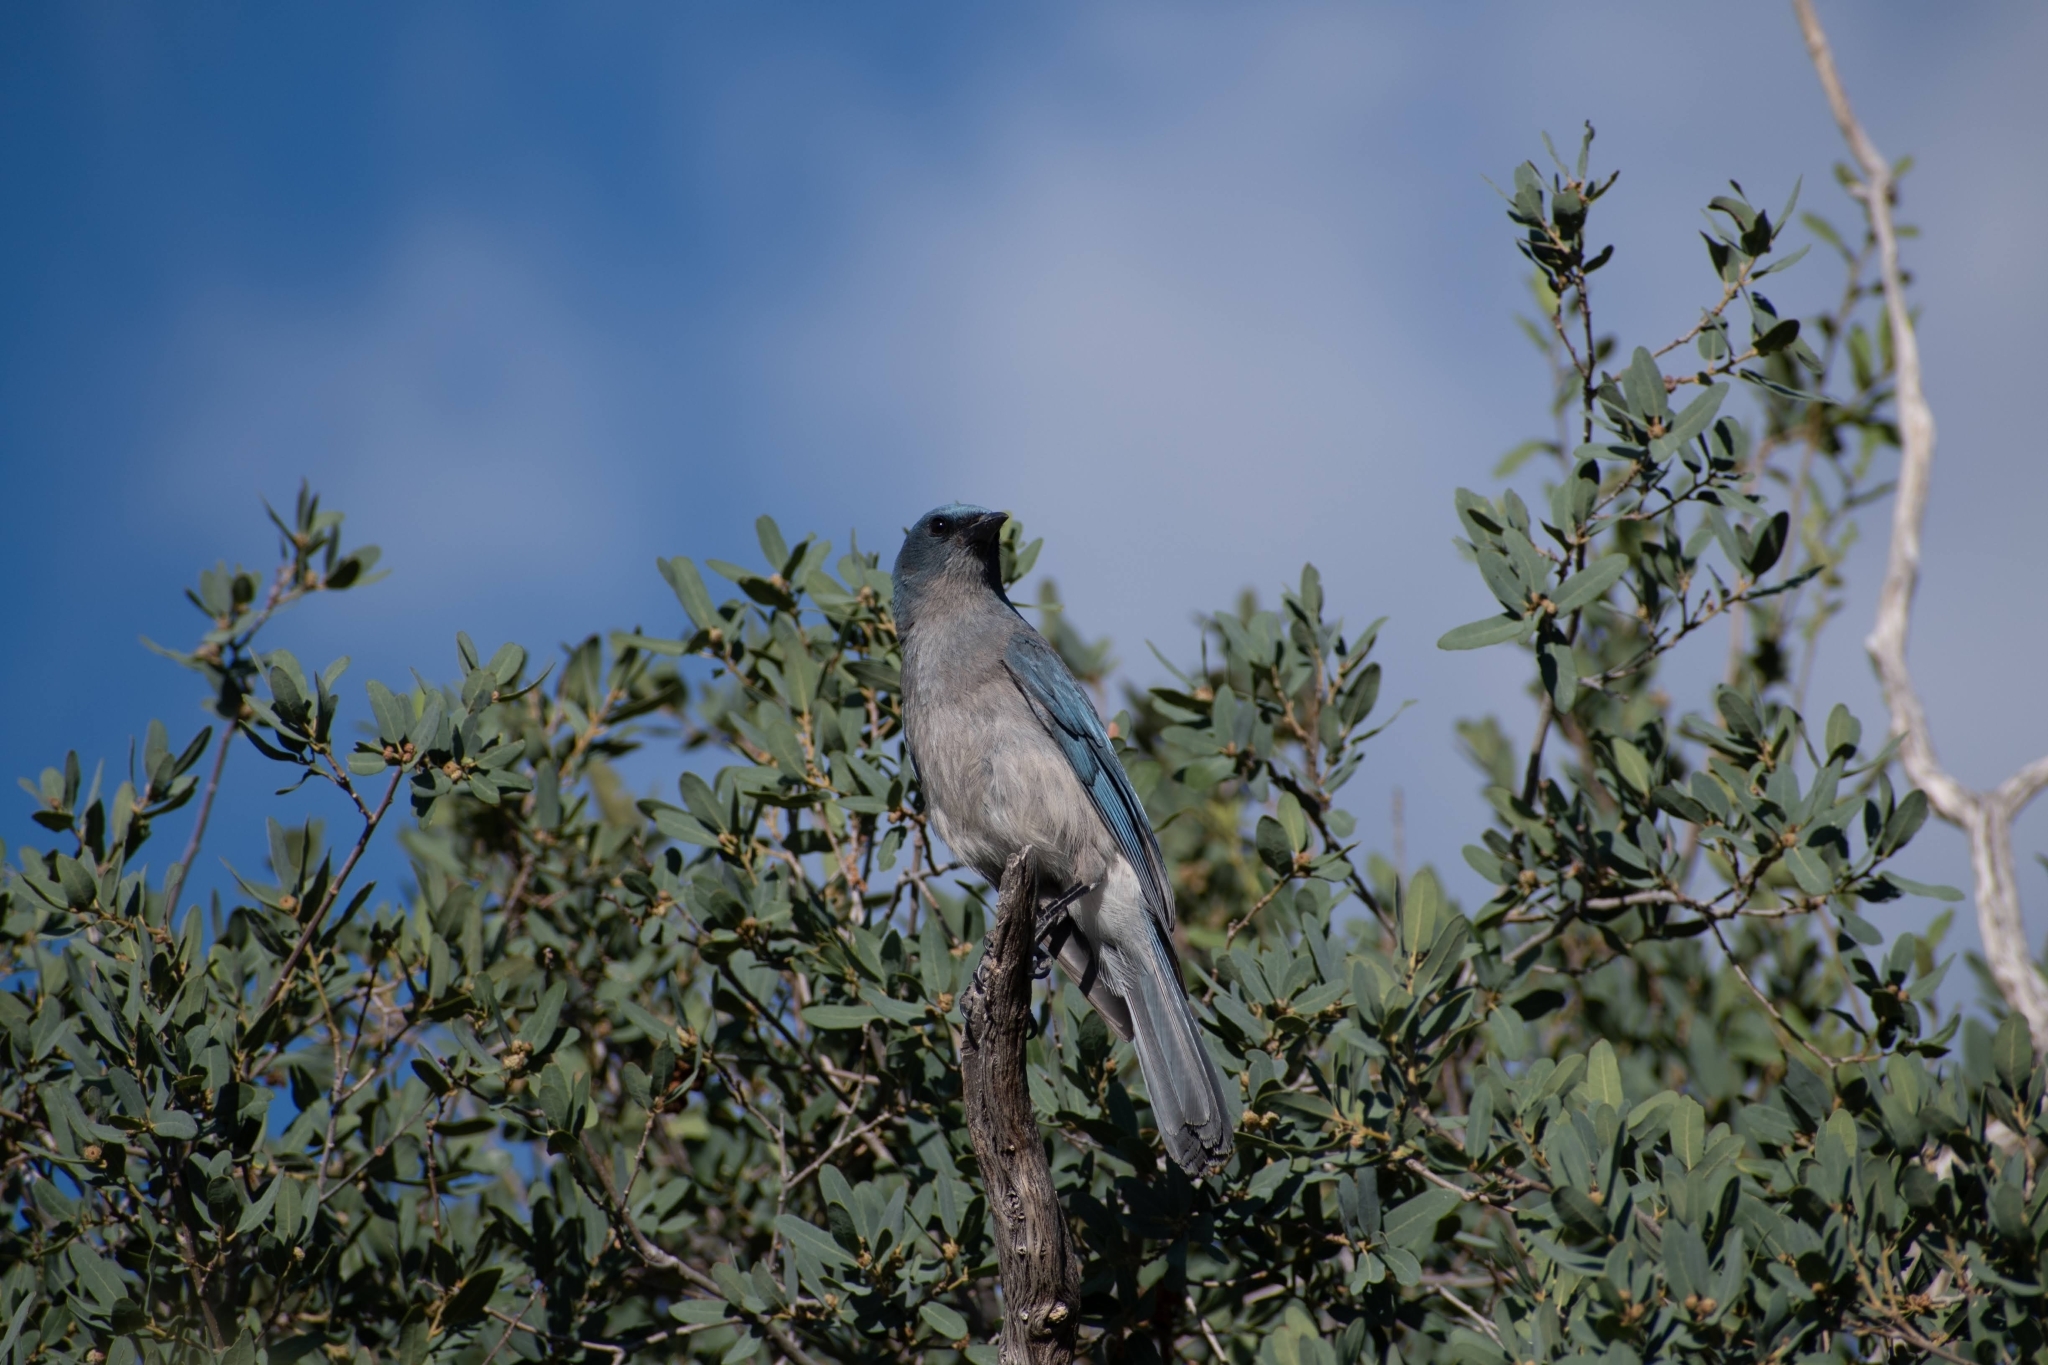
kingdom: Animalia
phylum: Chordata
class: Aves
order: Passeriformes
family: Corvidae
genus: Aphelocoma
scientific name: Aphelocoma wollweberi
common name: Mexican jay
